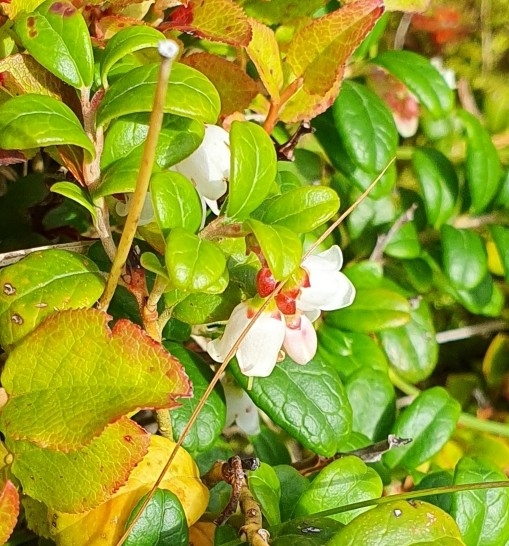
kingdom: Plantae
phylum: Tracheophyta
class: Magnoliopsida
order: Ericales
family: Ericaceae
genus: Vaccinium
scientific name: Vaccinium vitis-idaea
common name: Cowberry
